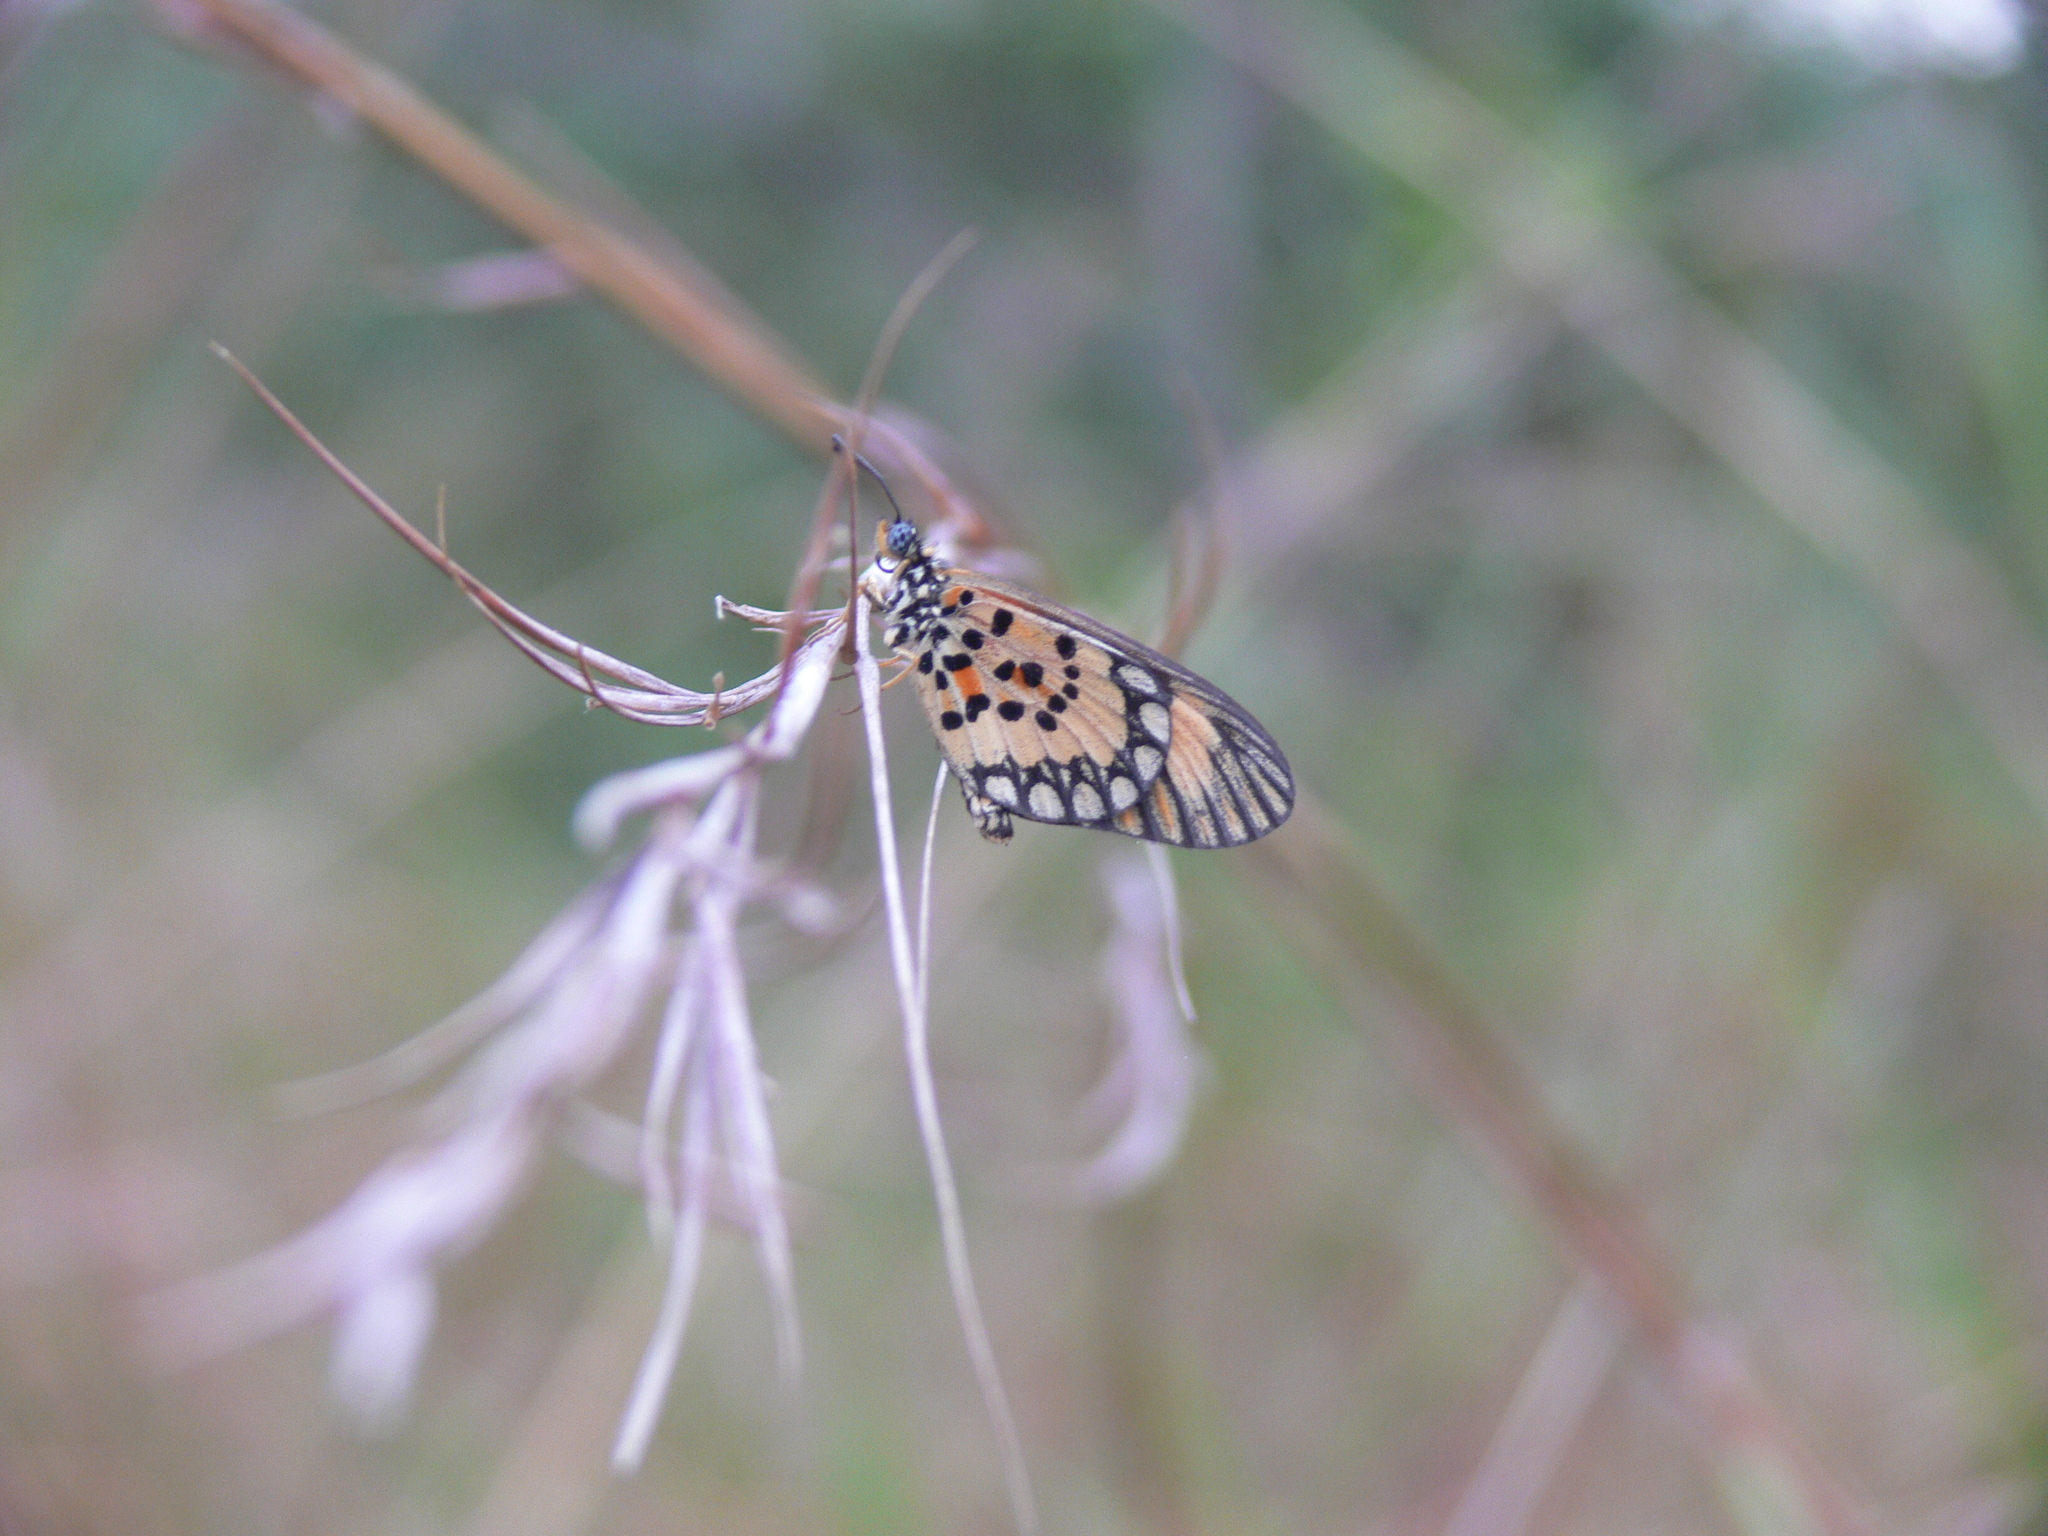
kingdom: Animalia
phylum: Arthropoda
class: Insecta
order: Lepidoptera
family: Nymphalidae
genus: Acraea
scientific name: Acraea Telchinia serena
